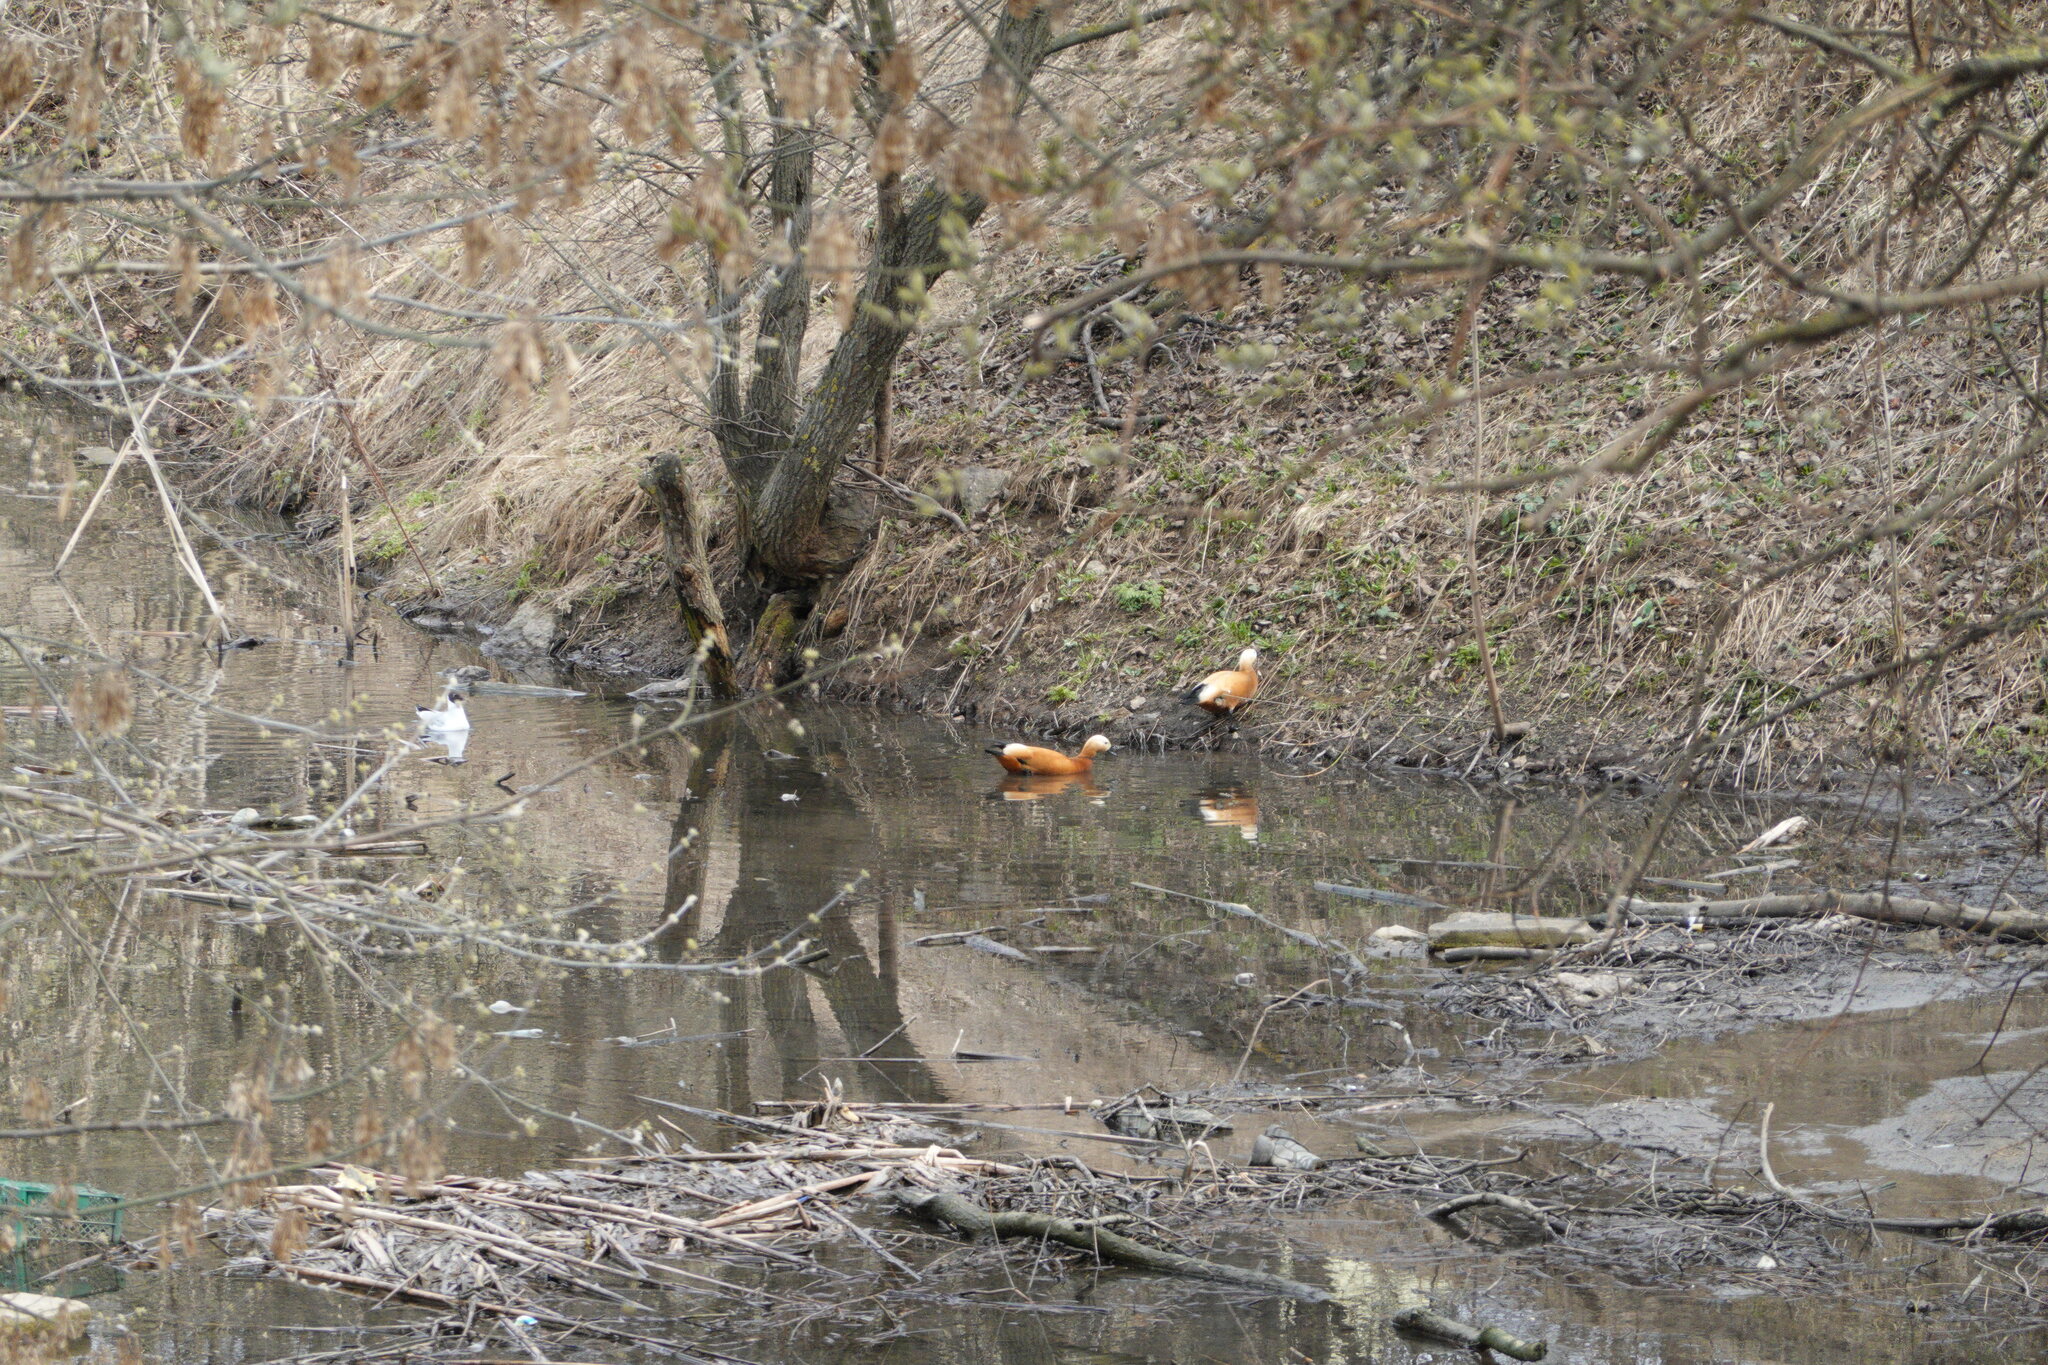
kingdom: Animalia
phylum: Chordata
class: Aves
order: Anseriformes
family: Anatidae
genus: Tadorna
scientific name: Tadorna ferruginea
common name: Ruddy shelduck
